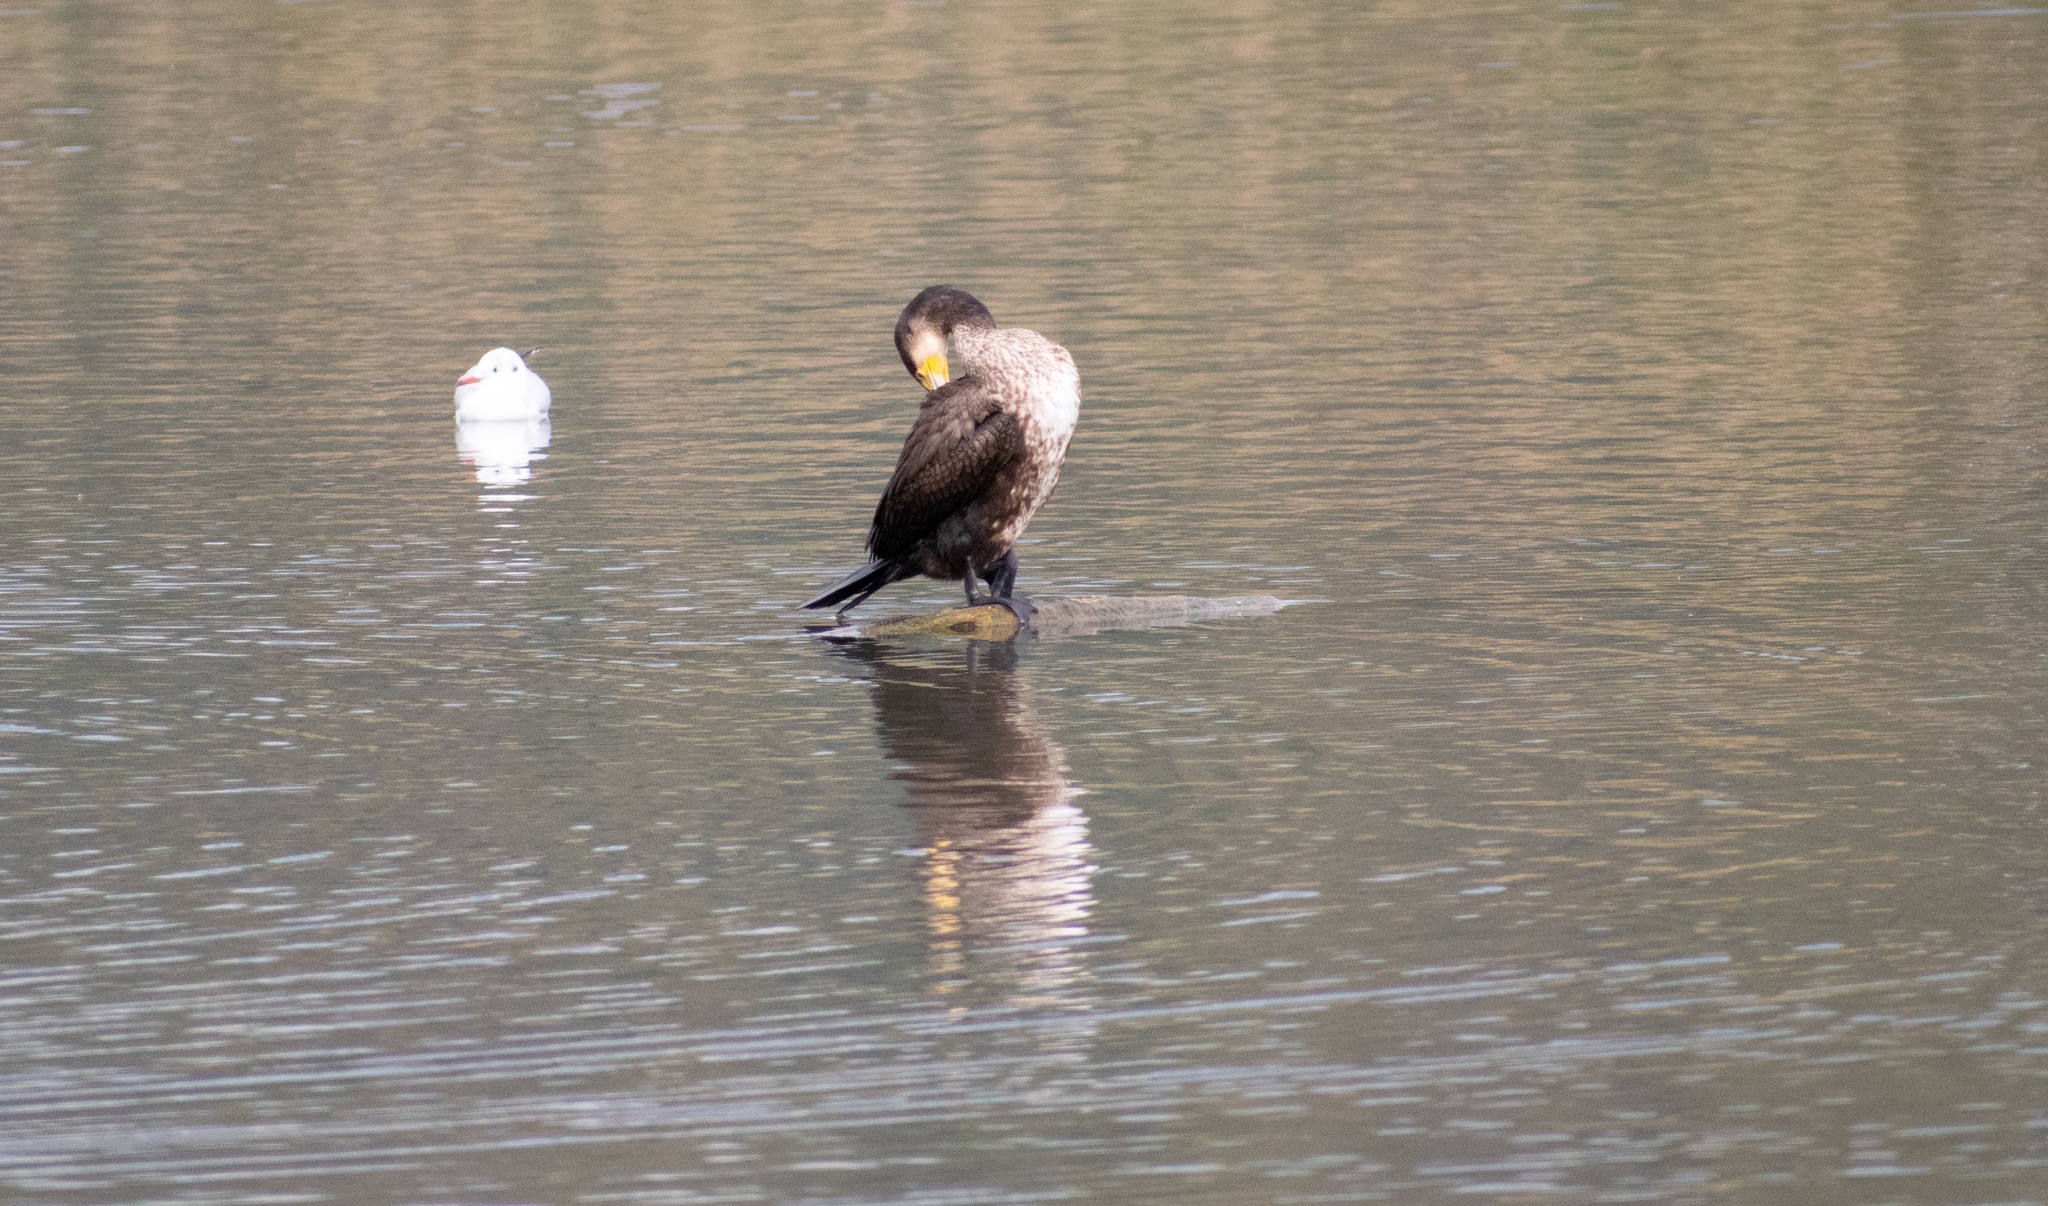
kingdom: Animalia
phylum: Chordata
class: Aves
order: Suliformes
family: Phalacrocoracidae
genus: Phalacrocorax
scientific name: Phalacrocorax carbo
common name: Great cormorant
